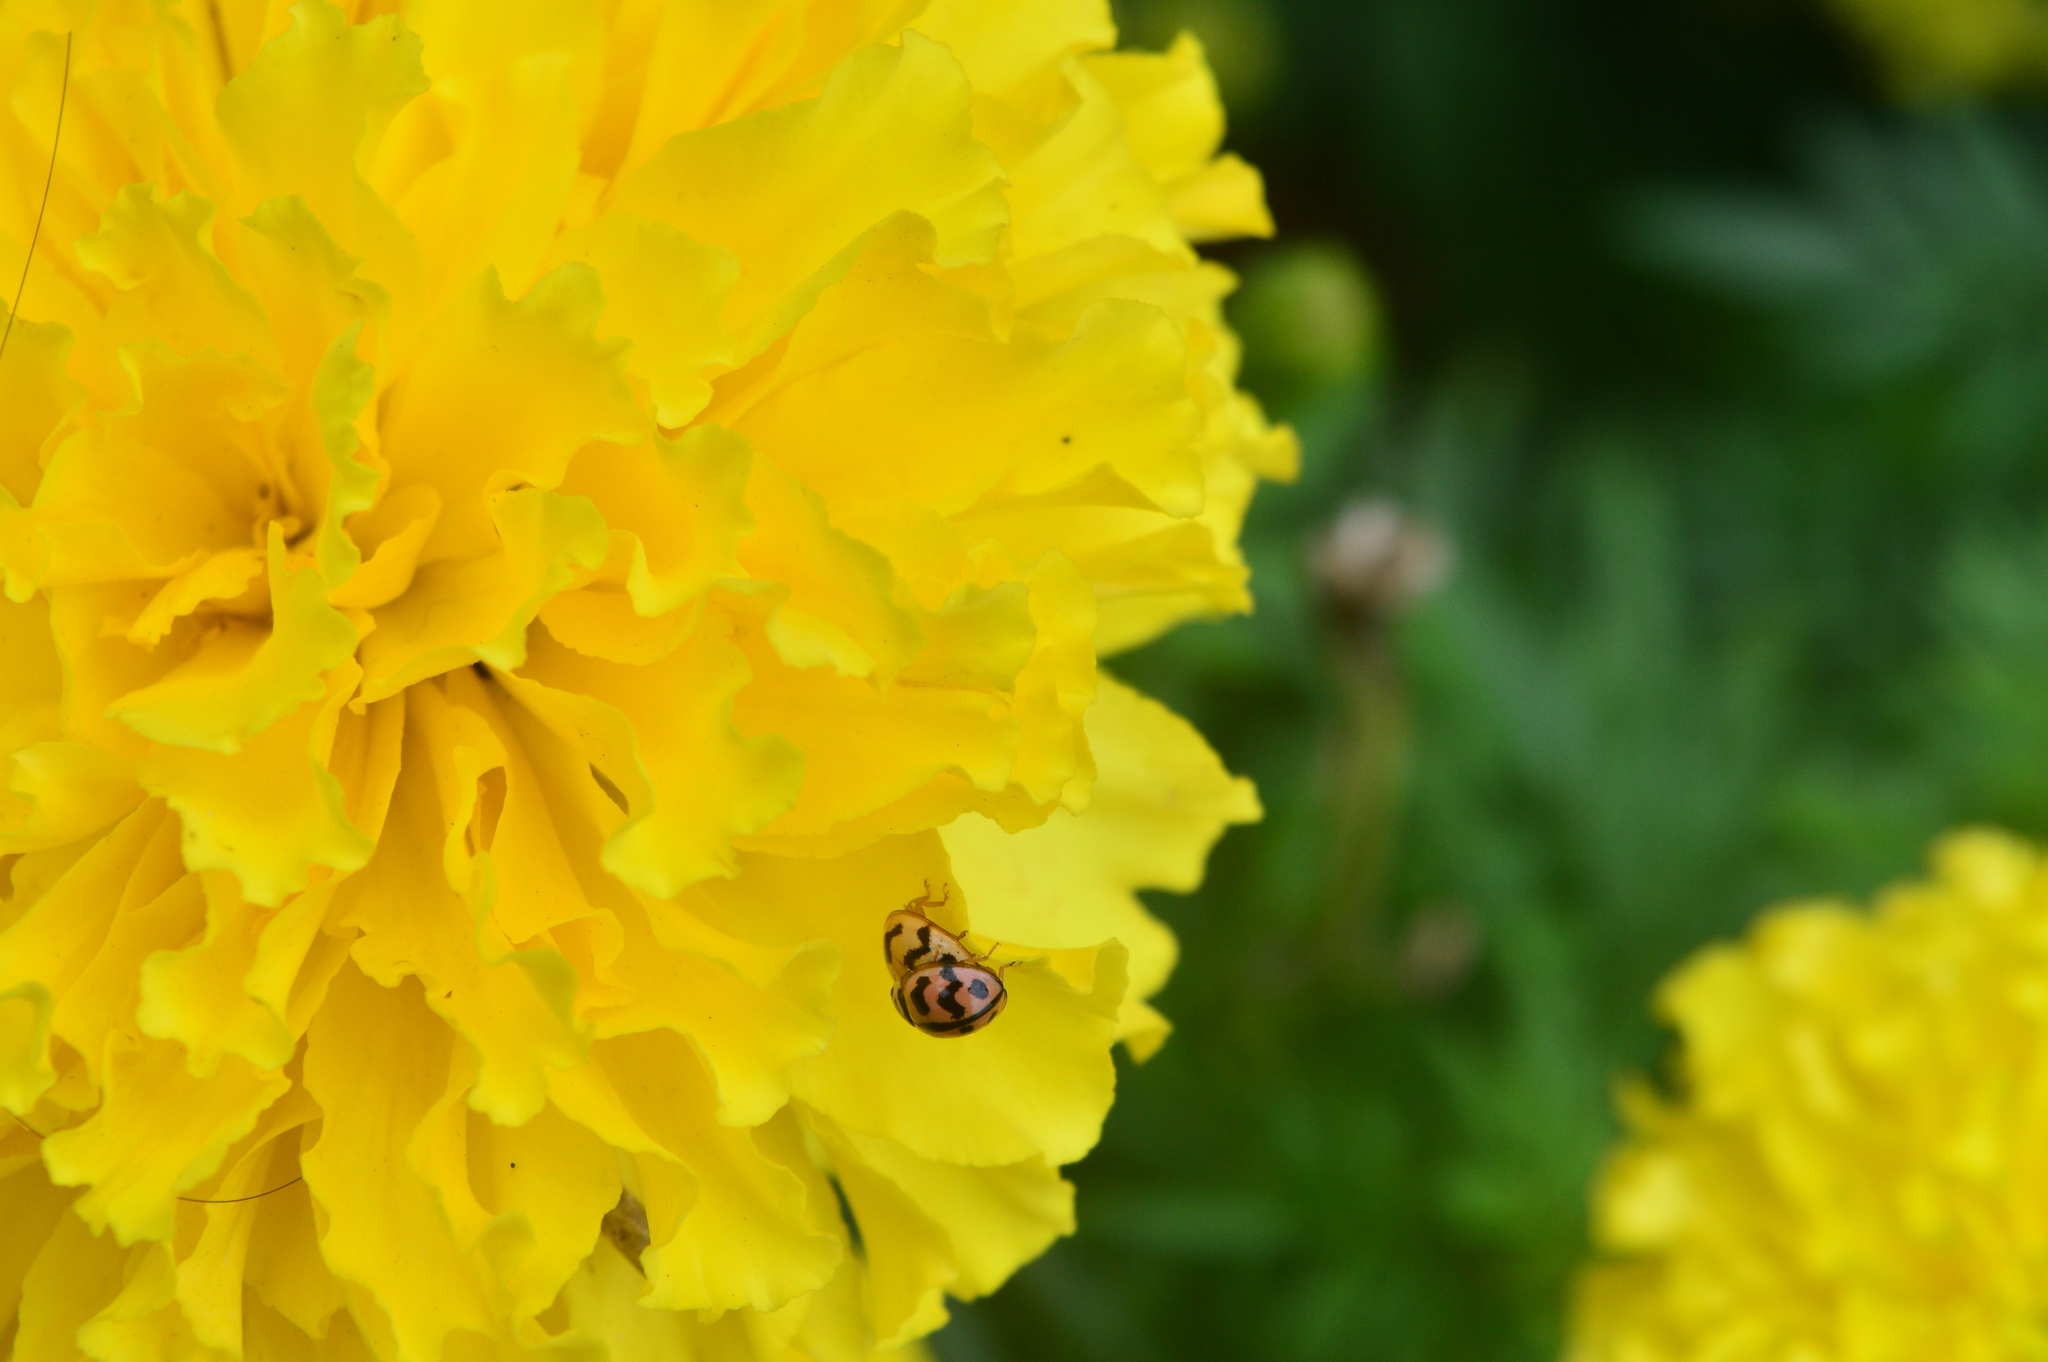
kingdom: Animalia
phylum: Arthropoda
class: Insecta
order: Coleoptera
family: Coccinellidae
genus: Cheilomenes
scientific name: Cheilomenes sexmaculata
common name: Ladybird beetle
